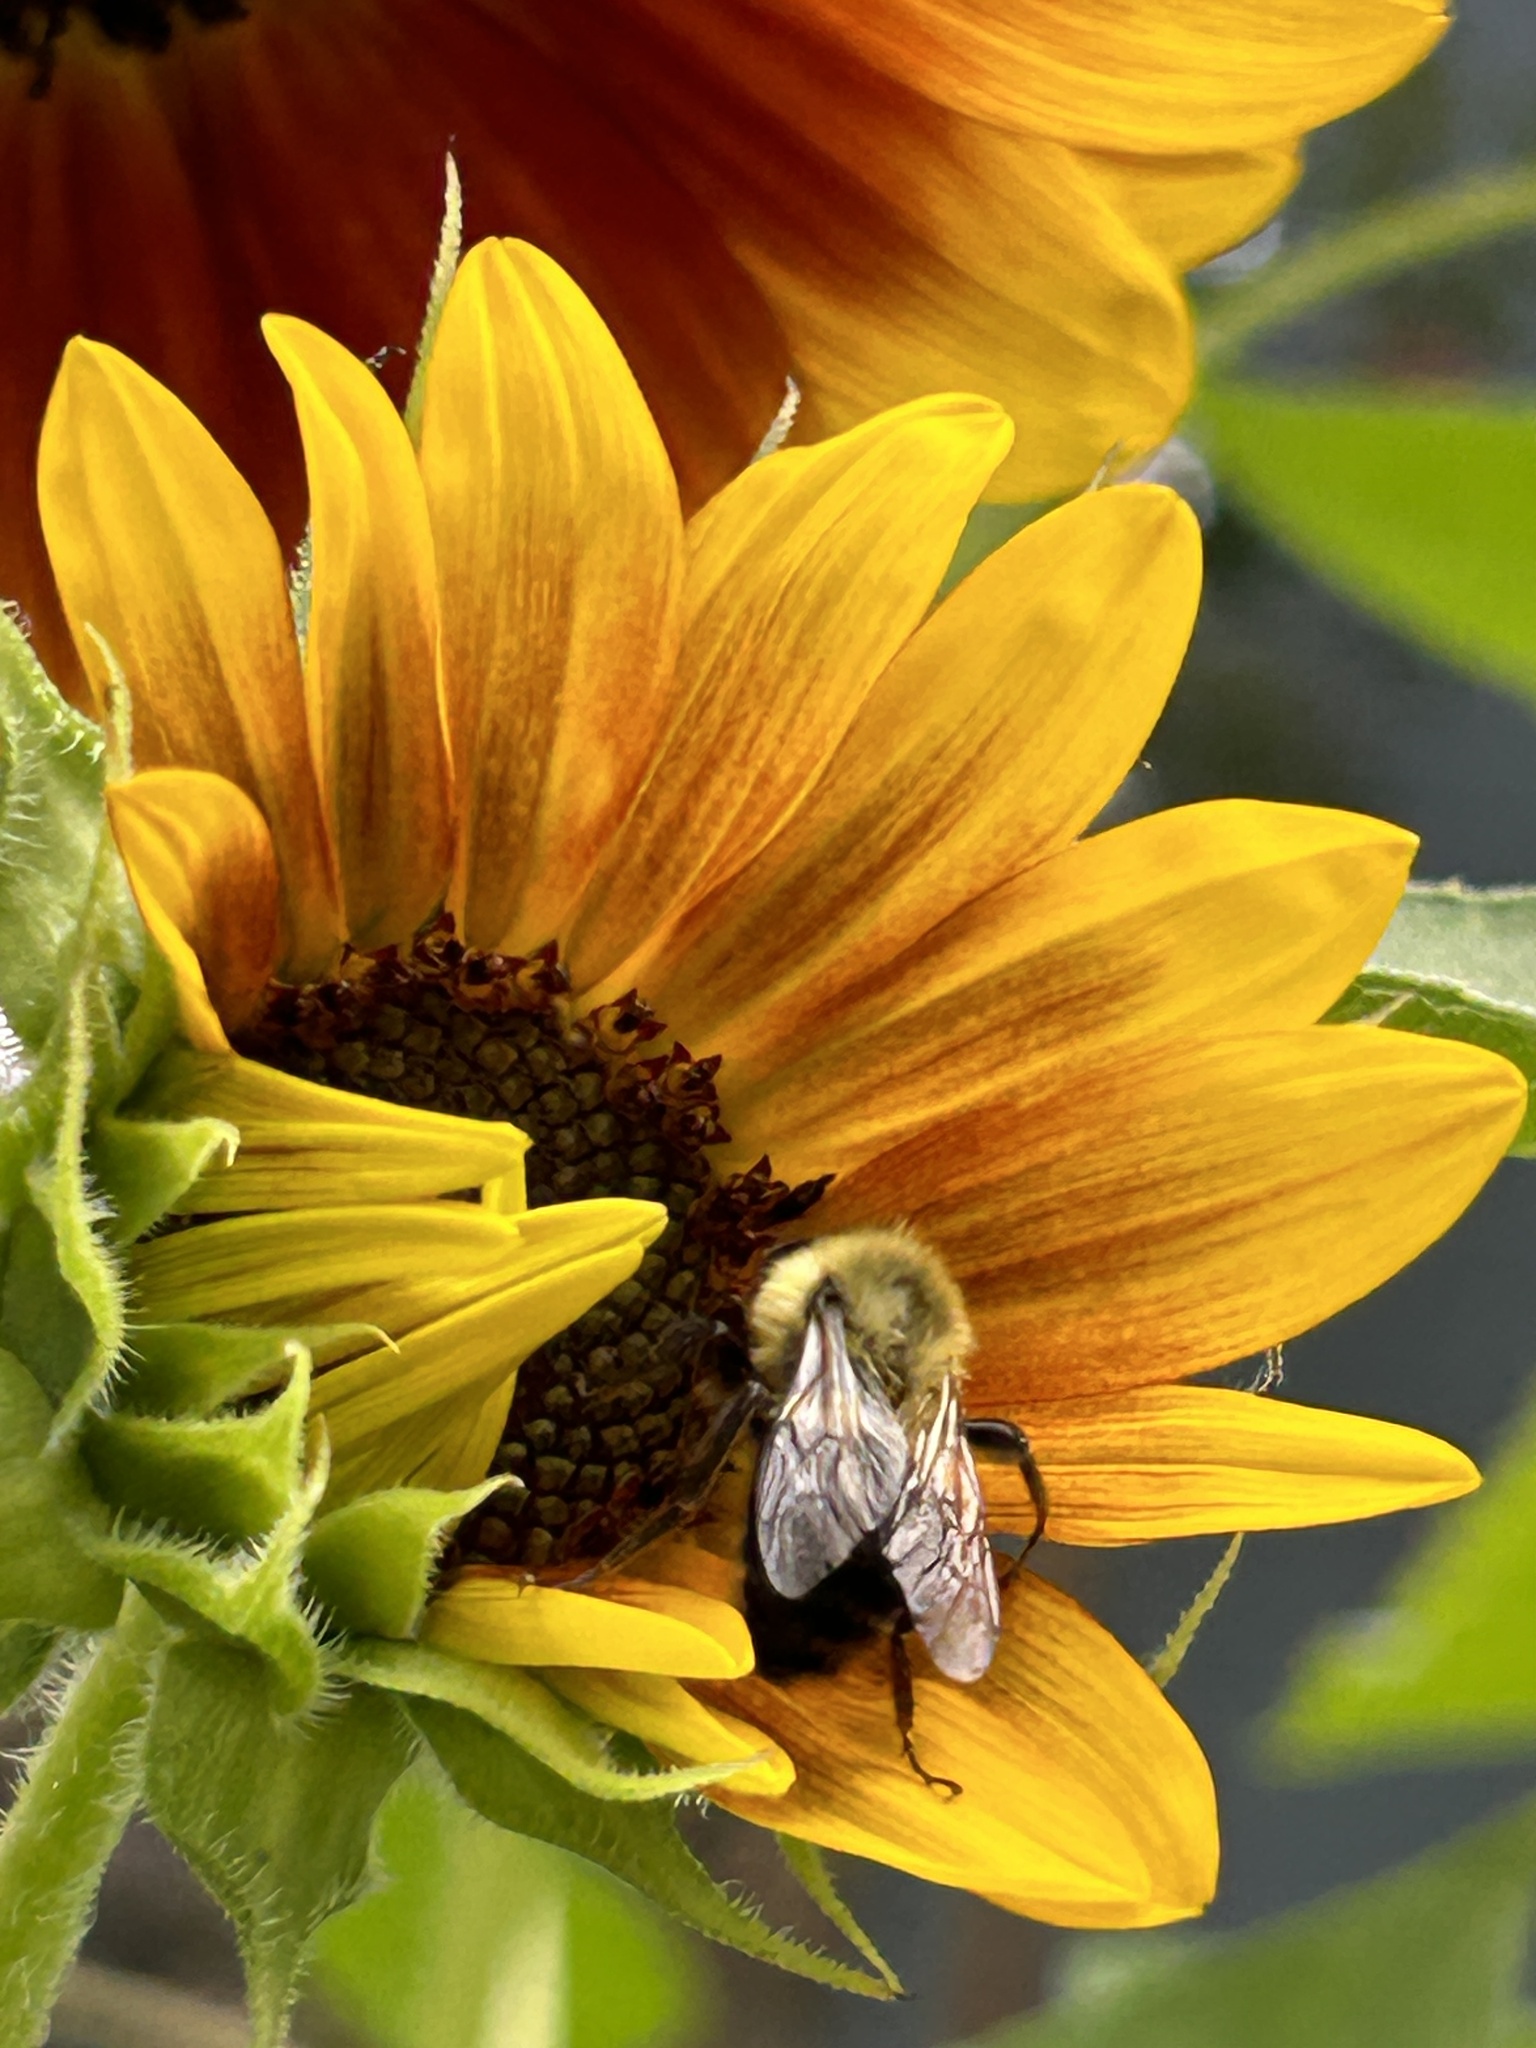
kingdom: Animalia
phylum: Arthropoda
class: Insecta
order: Hymenoptera
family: Apidae
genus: Bombus
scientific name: Bombus impatiens
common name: Common eastern bumble bee
